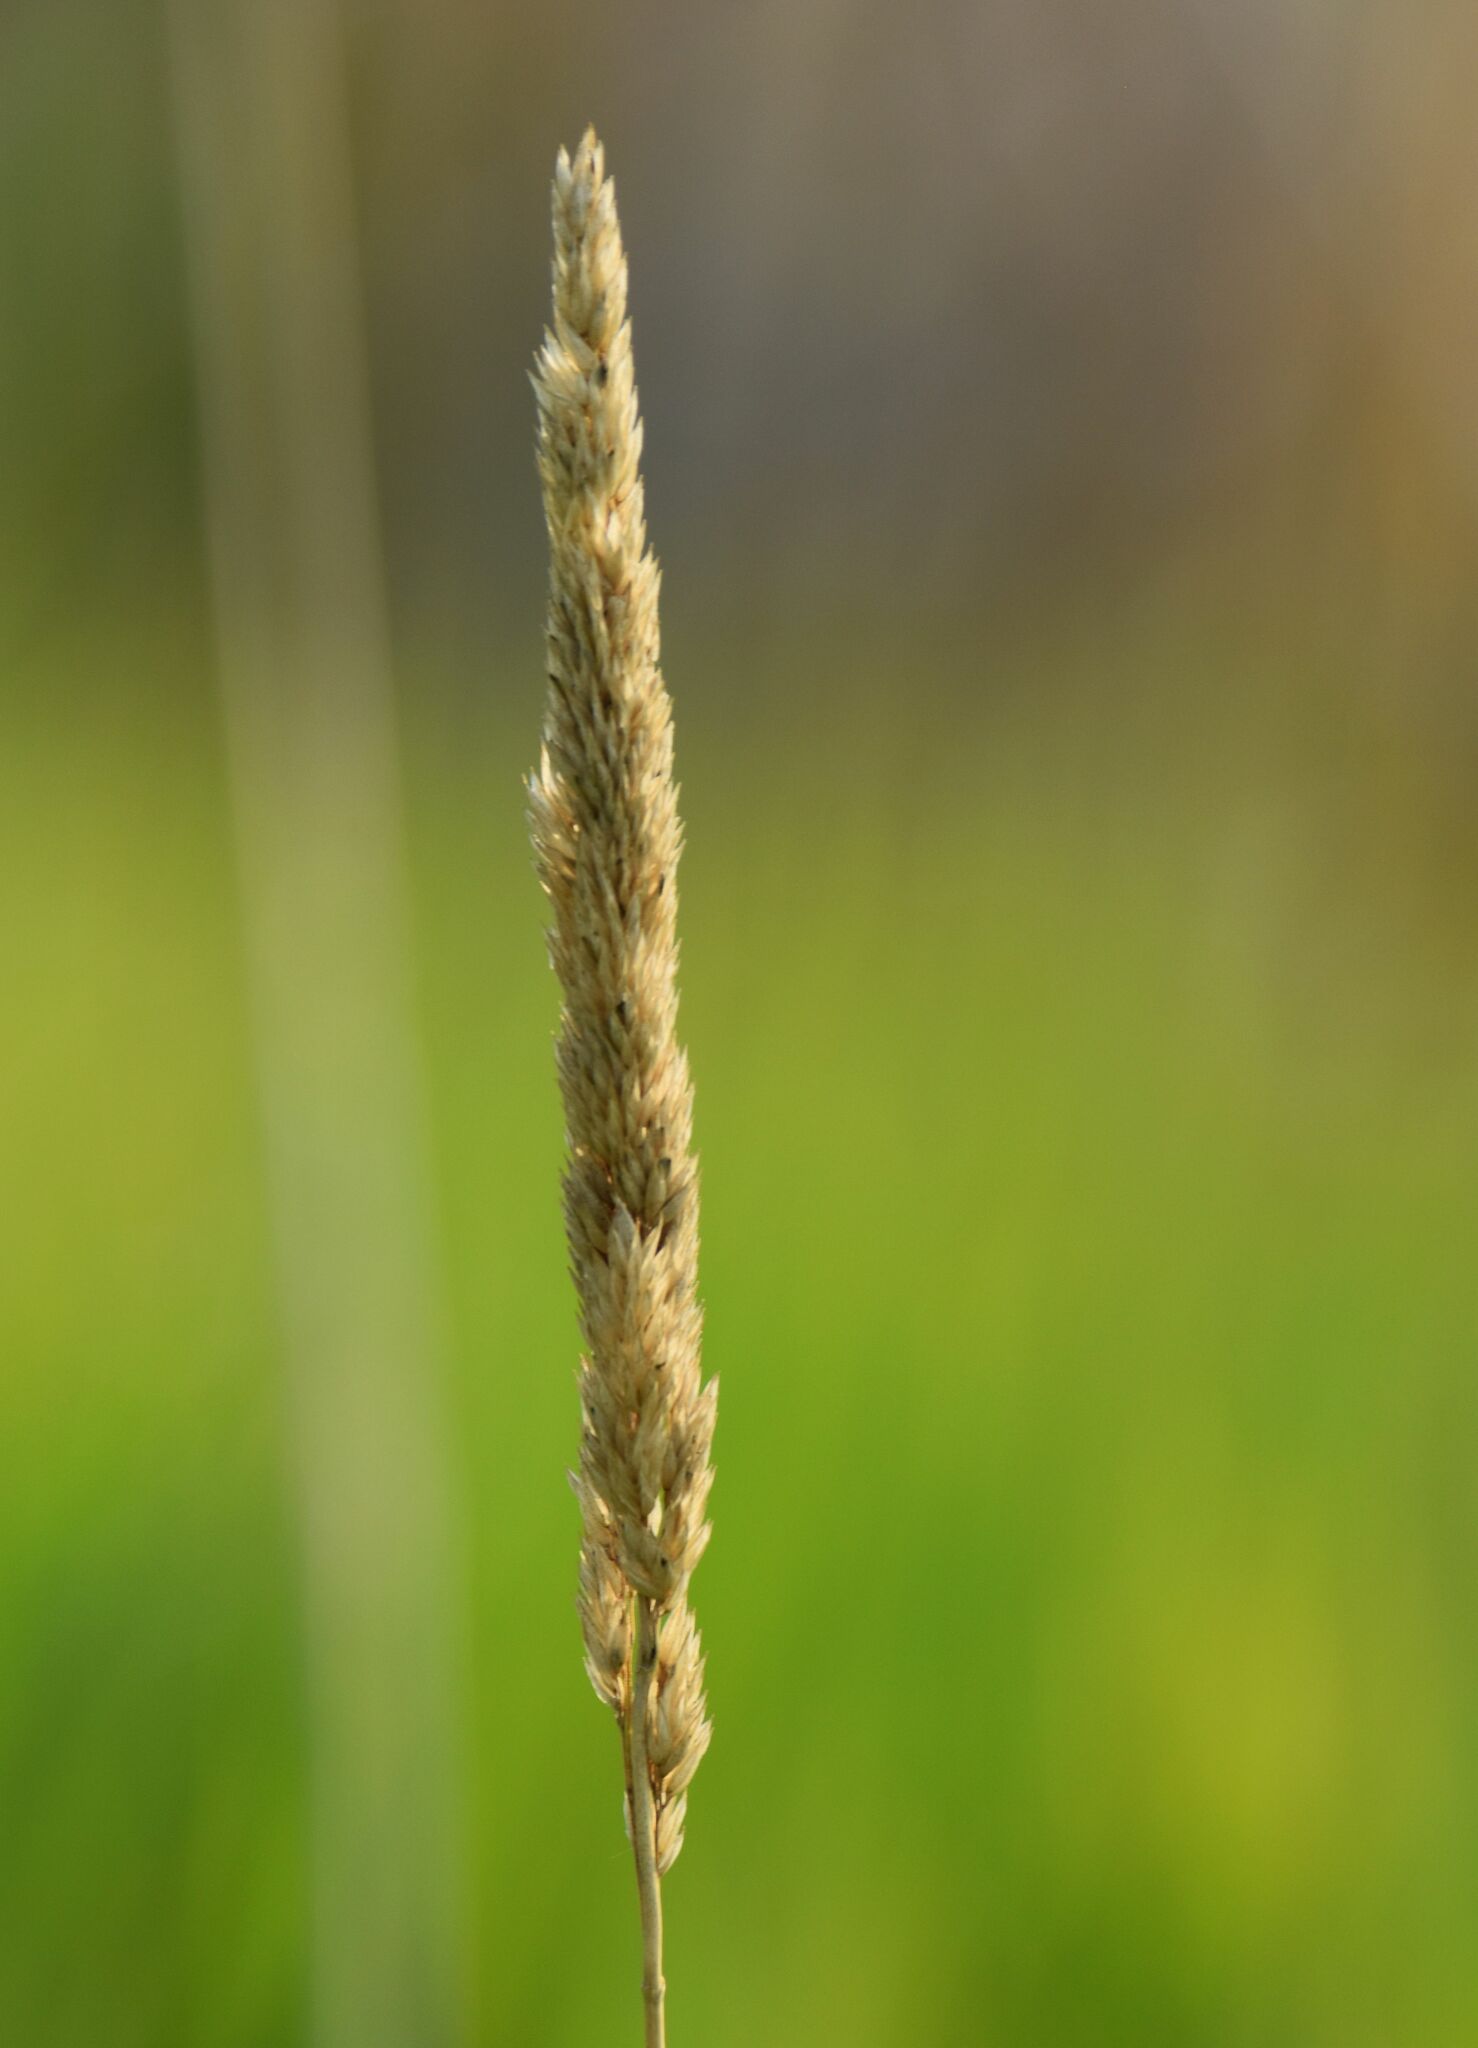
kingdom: Plantae
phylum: Tracheophyta
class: Liliopsida
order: Poales
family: Poaceae
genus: Phalaris
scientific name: Phalaris arundinacea
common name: Reed canary-grass
